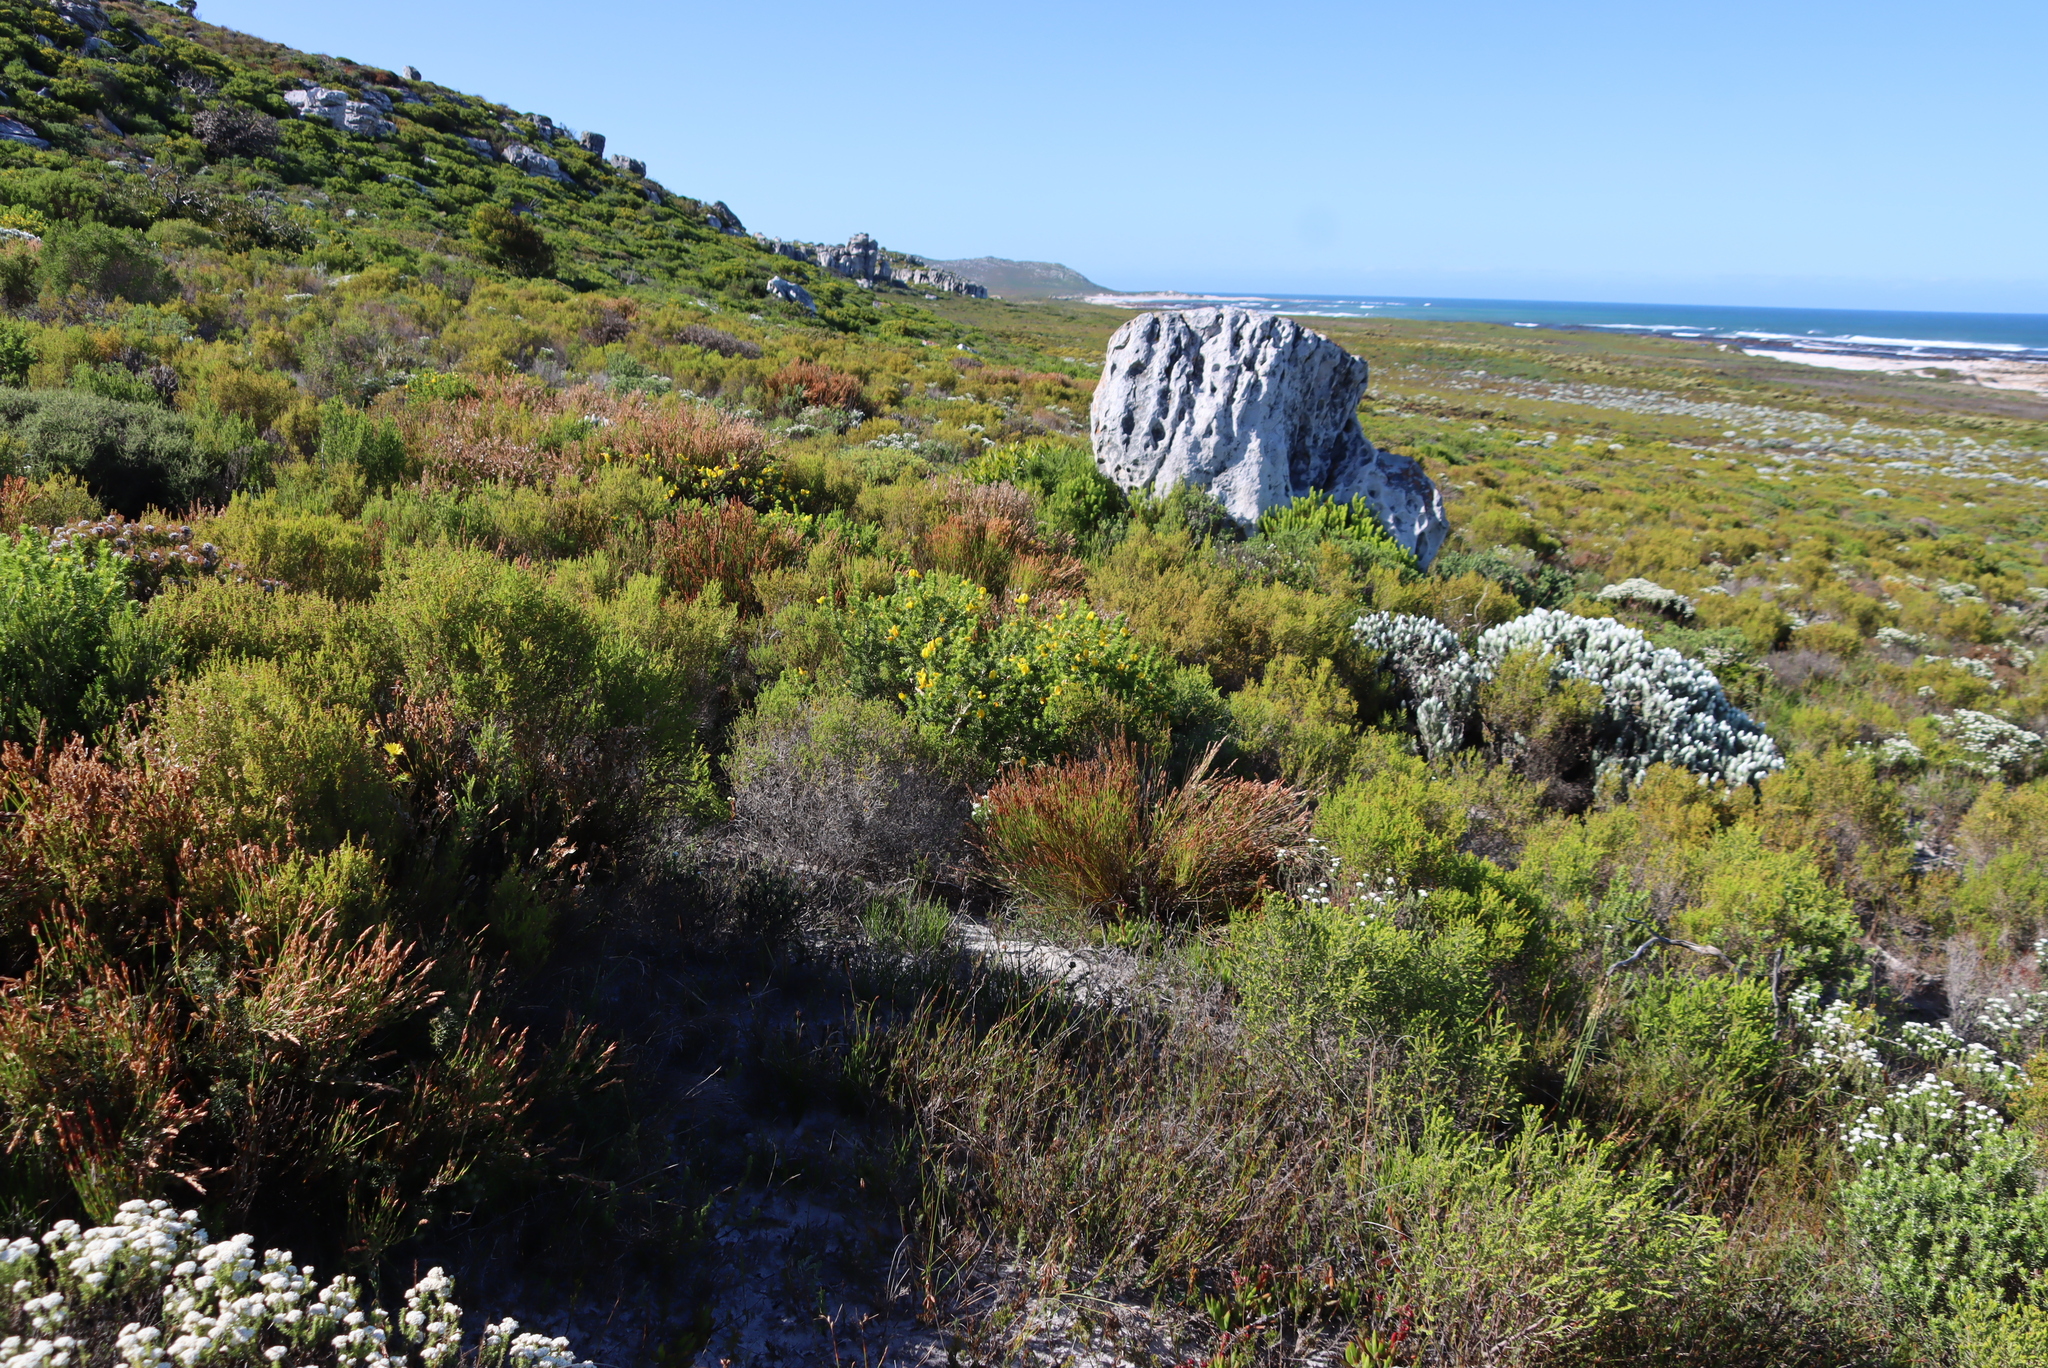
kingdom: Plantae
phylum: Tracheophyta
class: Magnoliopsida
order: Fabales
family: Fabaceae
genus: Aspalathus
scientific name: Aspalathus capensis
